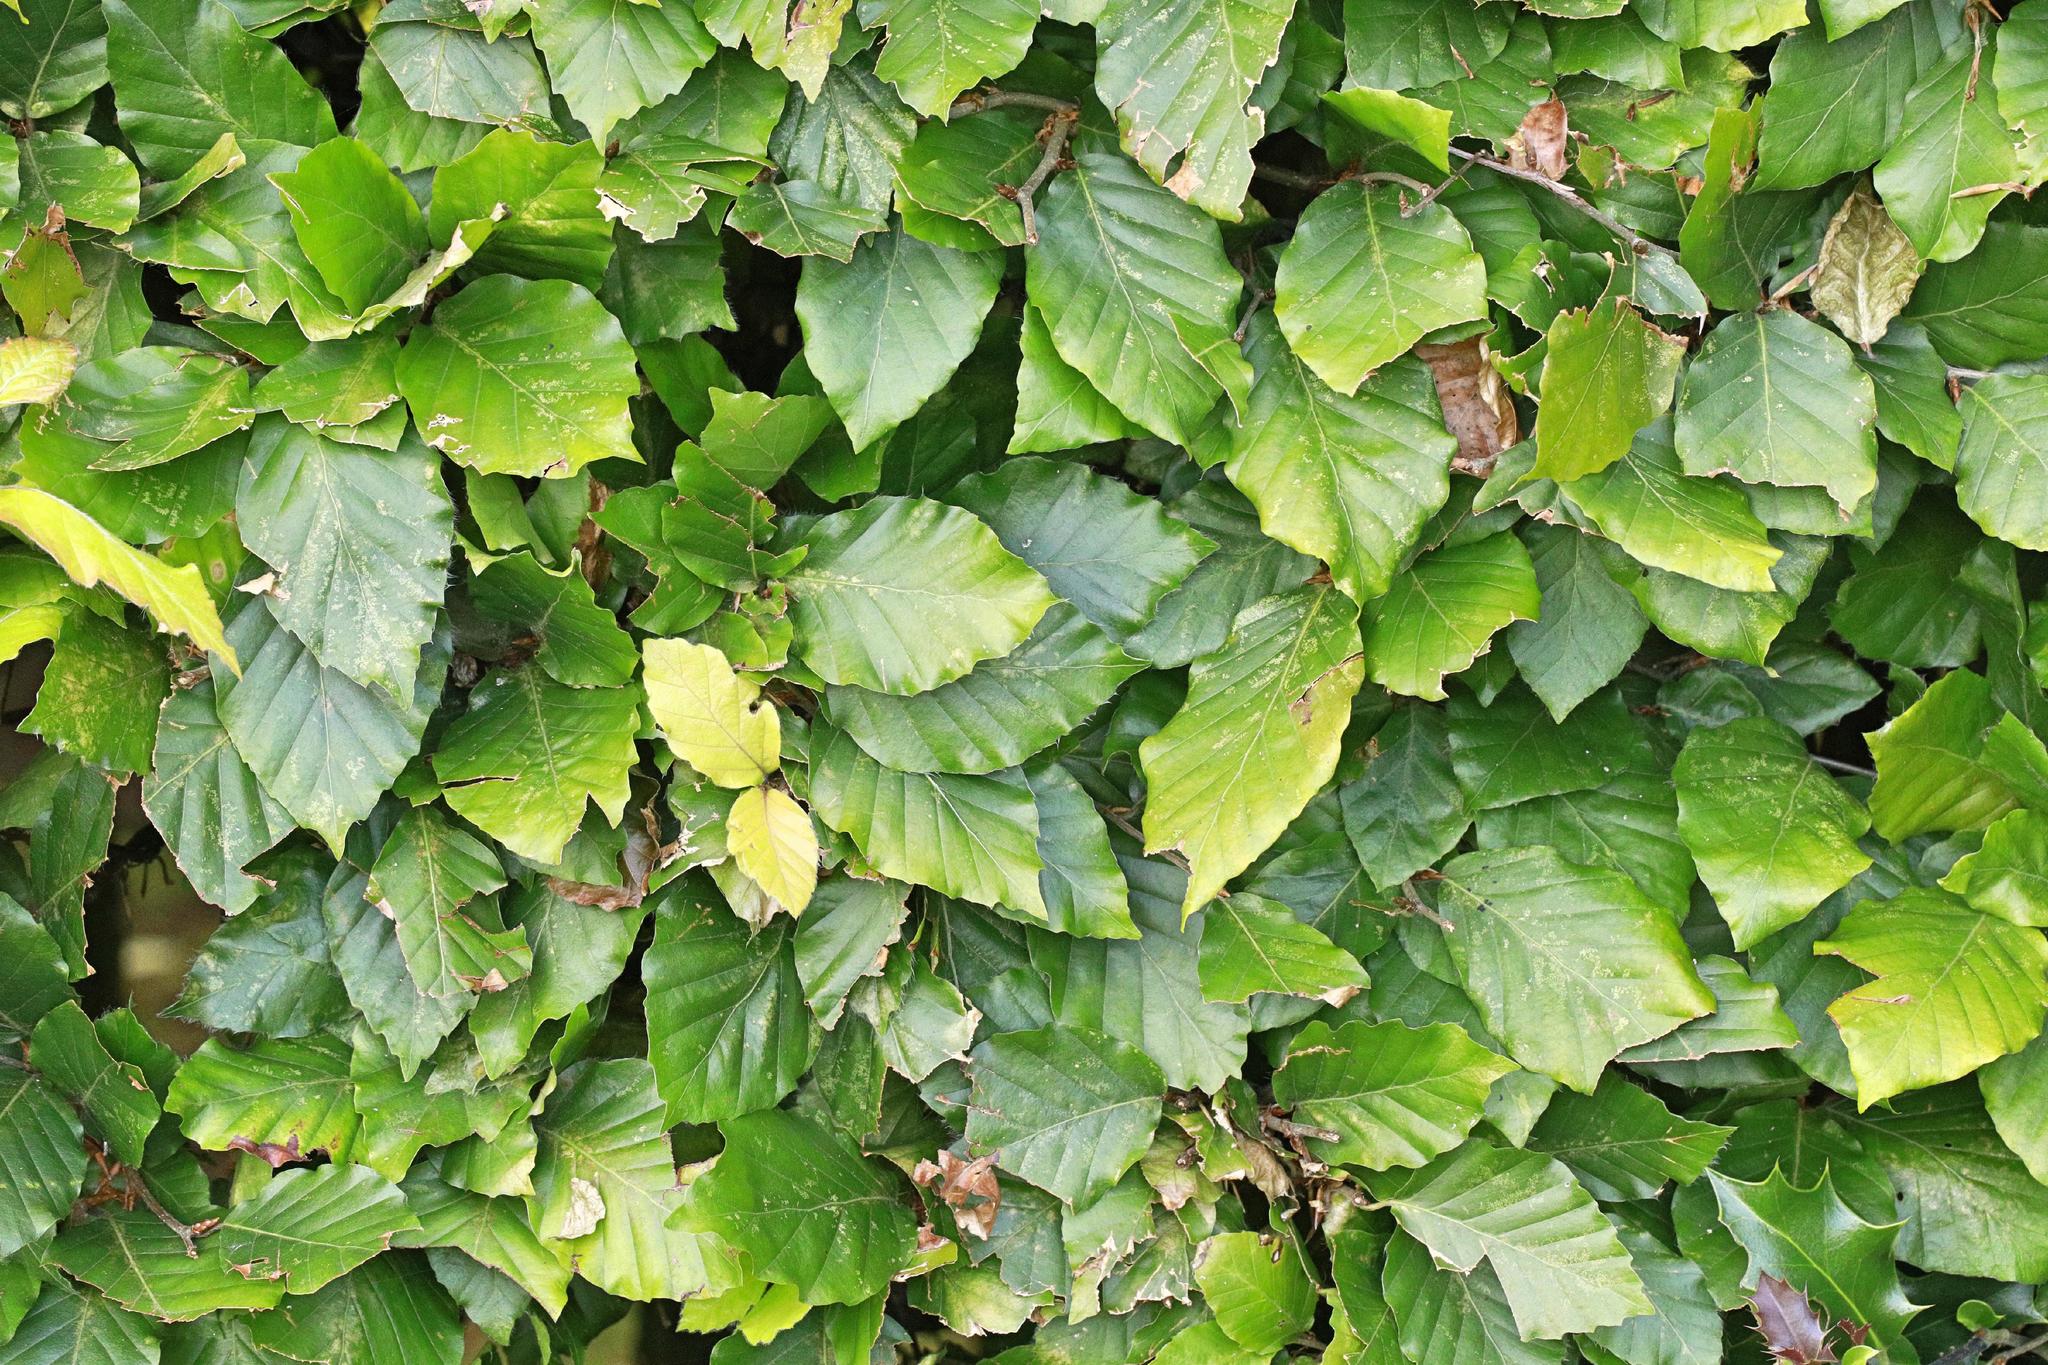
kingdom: Plantae
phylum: Tracheophyta
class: Magnoliopsida
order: Fagales
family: Fagaceae
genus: Fagus
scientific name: Fagus sylvatica
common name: Beech
